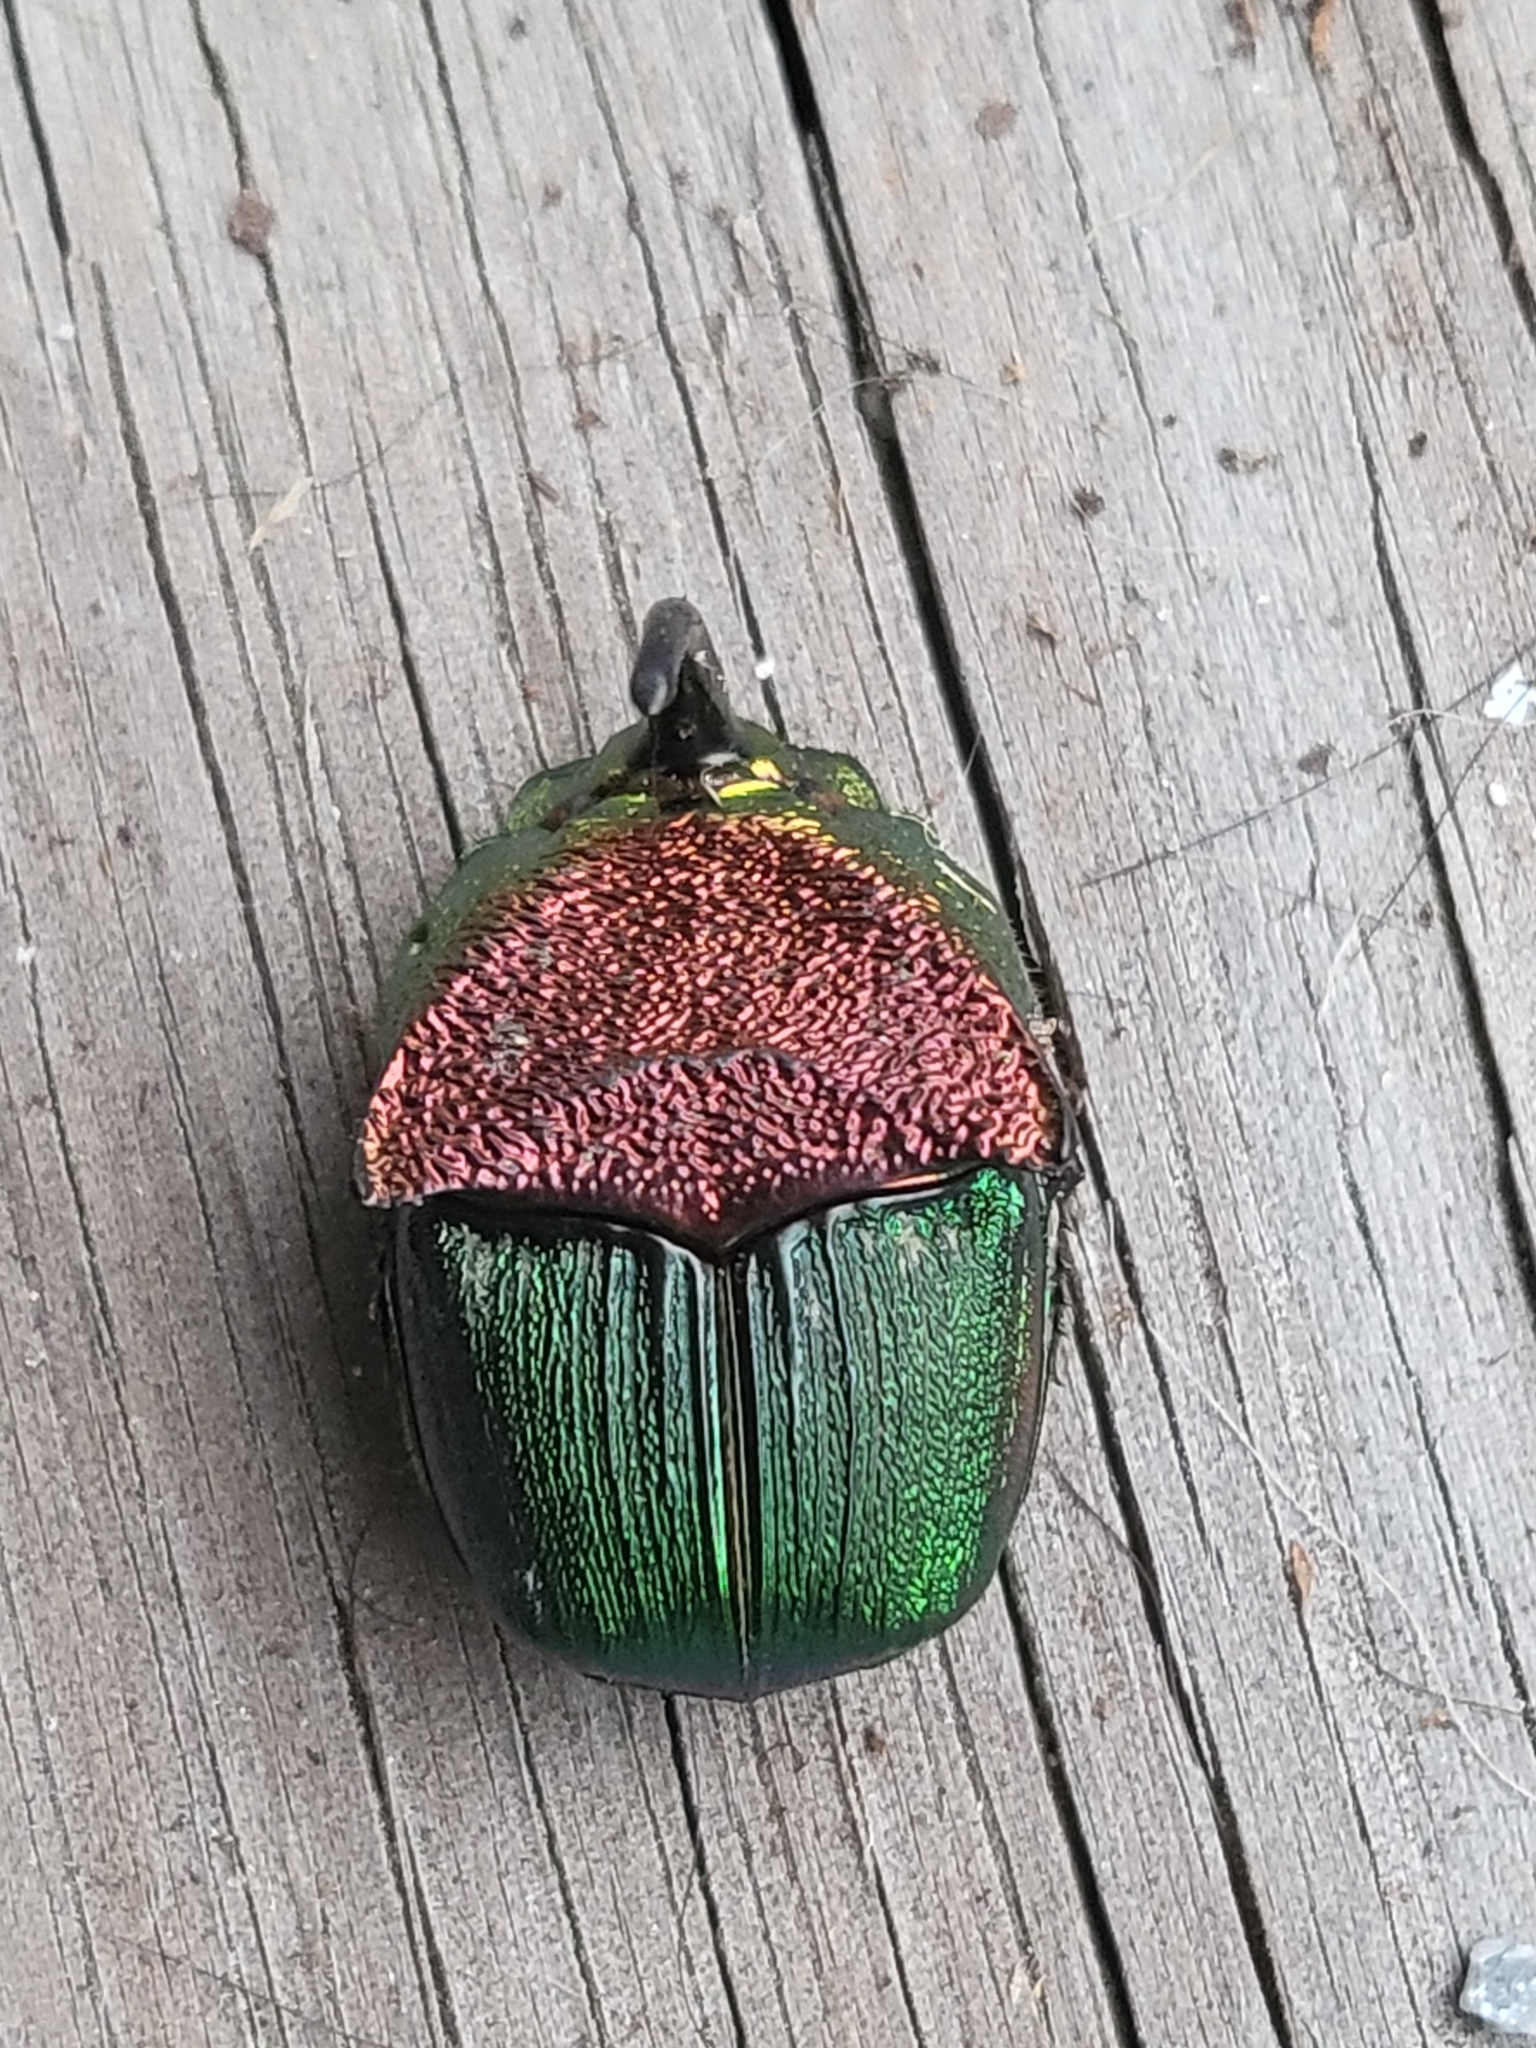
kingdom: Animalia
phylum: Arthropoda
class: Insecta
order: Coleoptera
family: Scarabaeidae
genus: Phanaeus
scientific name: Phanaeus vindex
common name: Rainbow scarab
